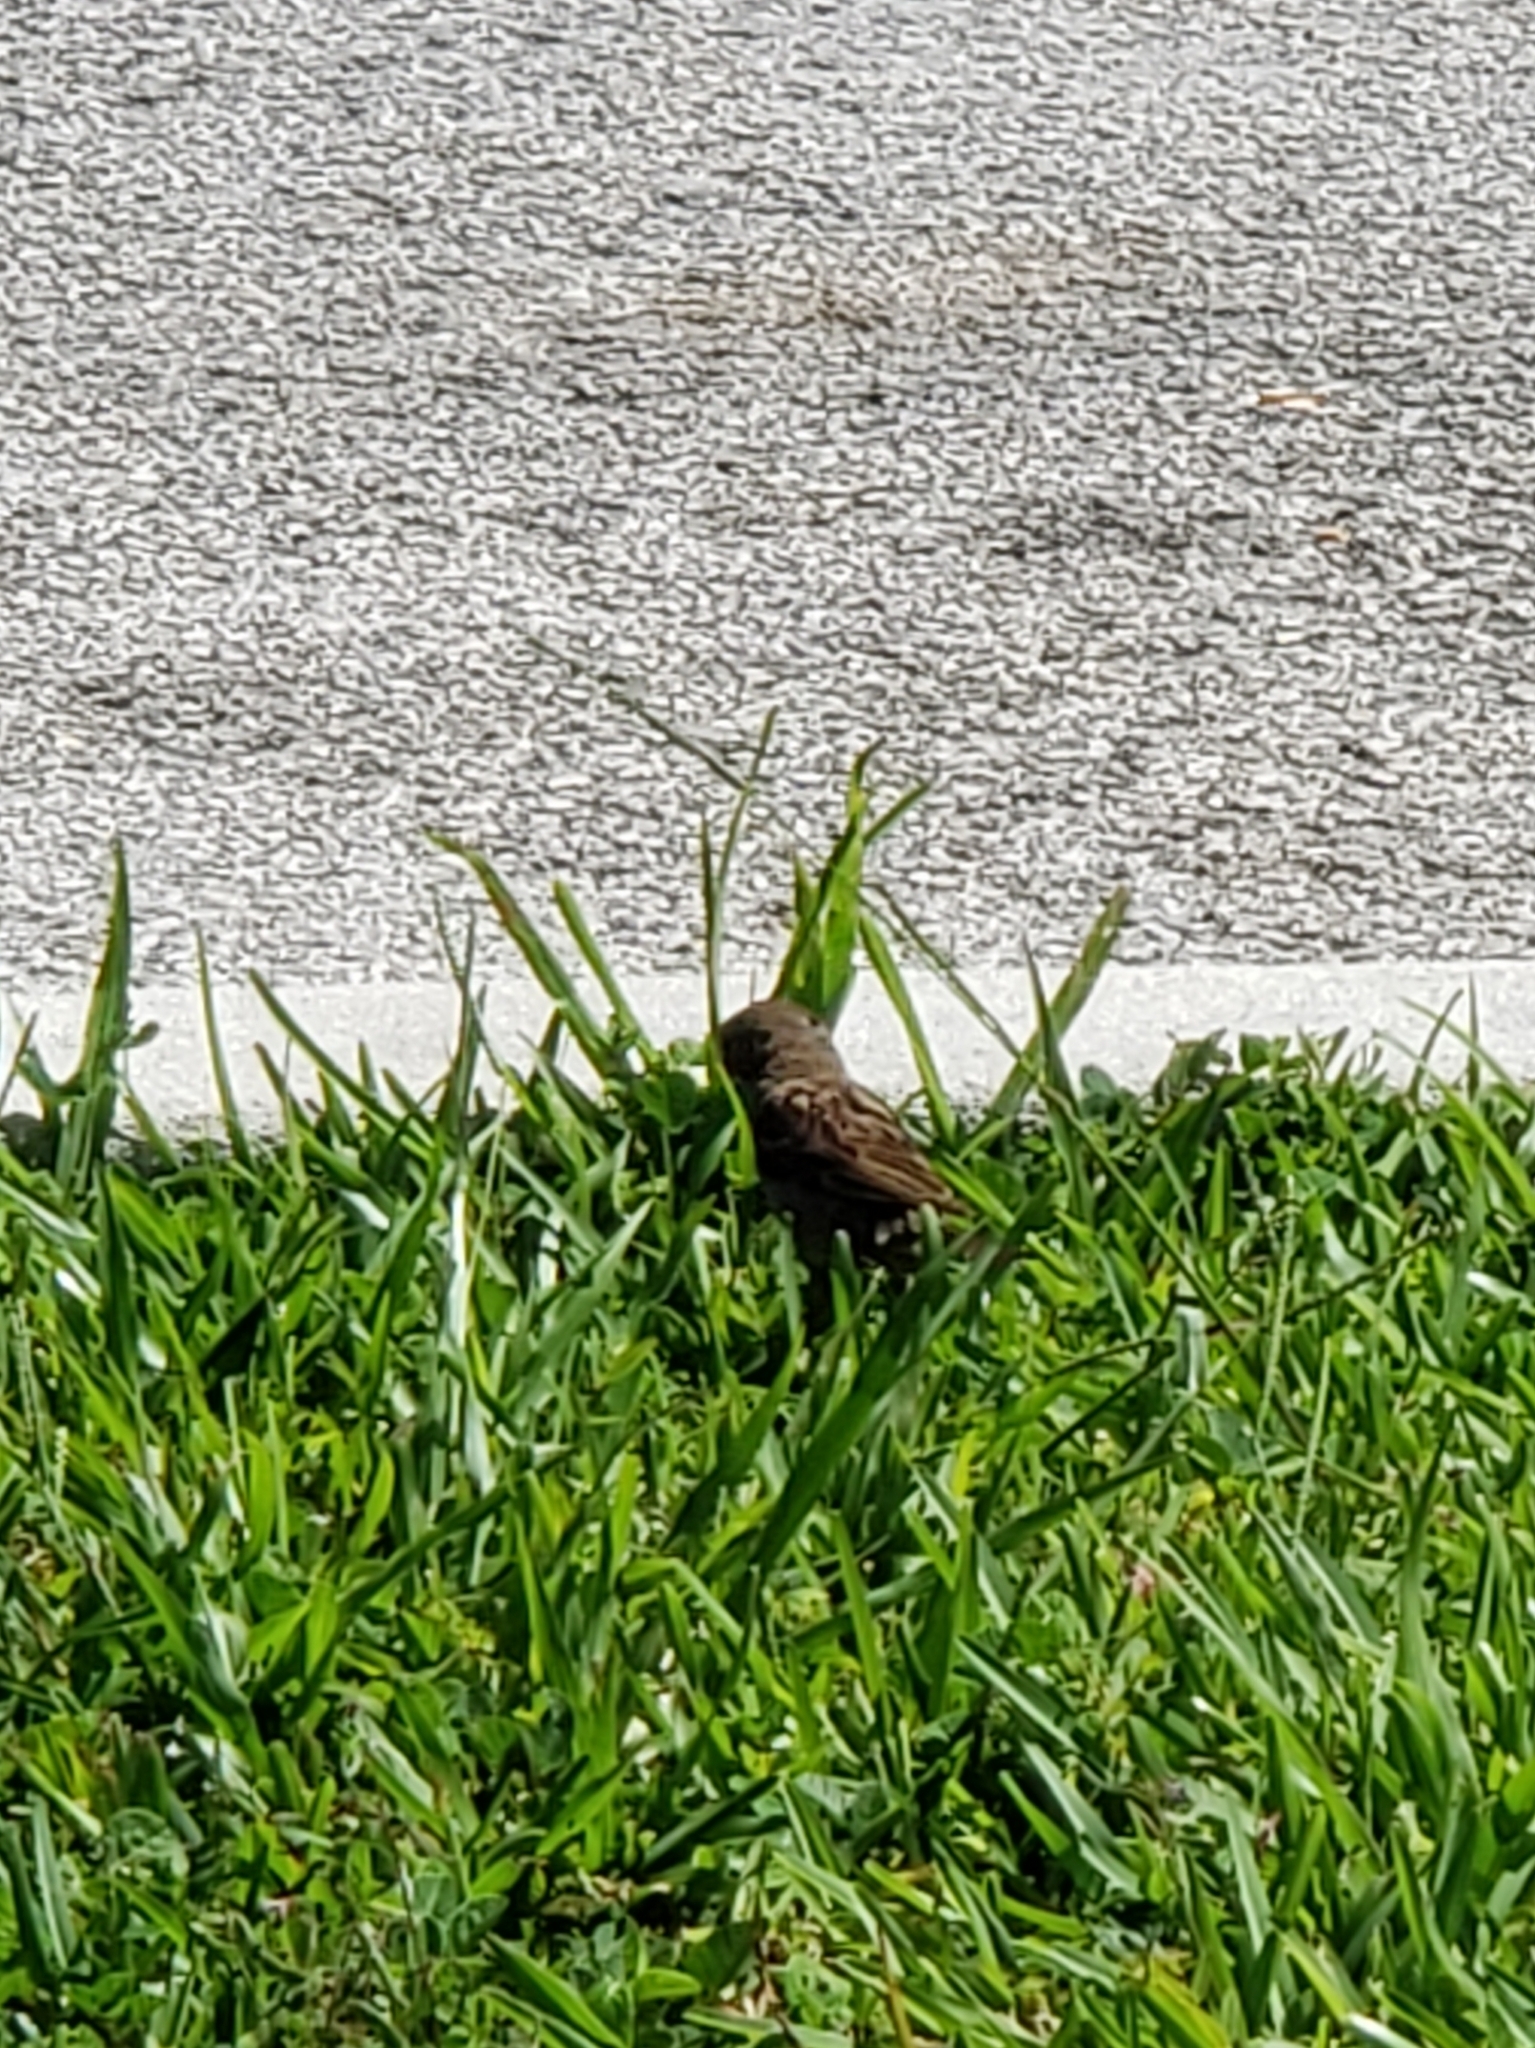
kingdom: Animalia
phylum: Chordata
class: Aves
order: Passeriformes
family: Passeridae
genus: Passer
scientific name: Passer domesticus
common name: House sparrow
